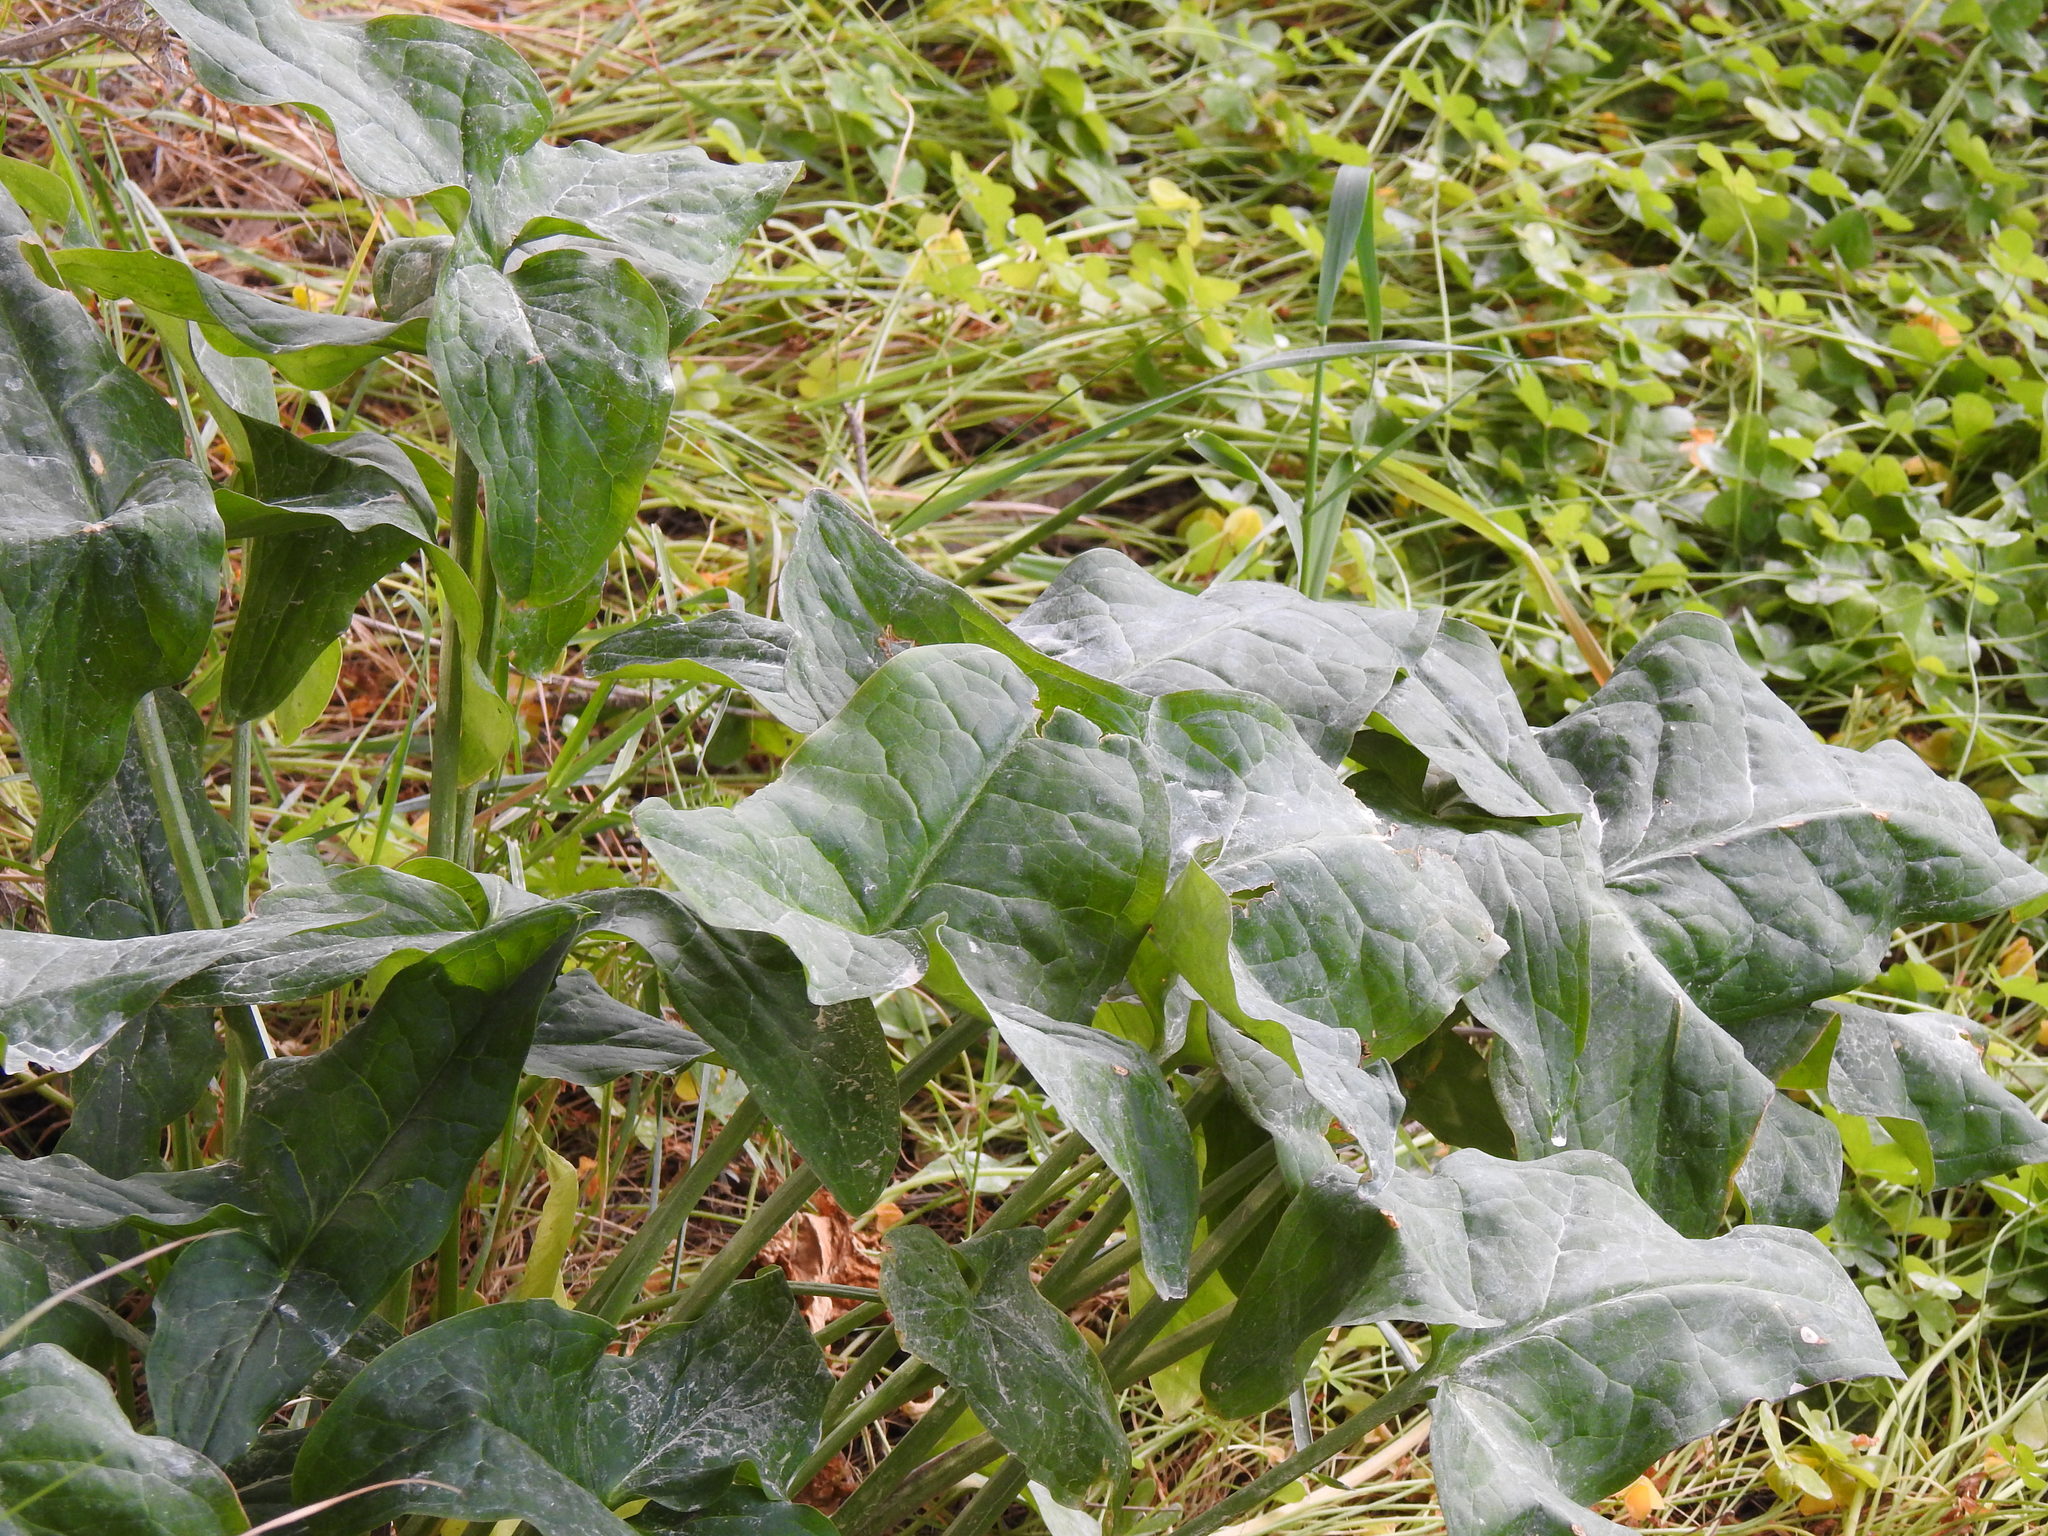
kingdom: Plantae
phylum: Tracheophyta
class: Liliopsida
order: Alismatales
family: Araceae
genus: Arum
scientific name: Arum italicum
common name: Italian lords-and-ladies
